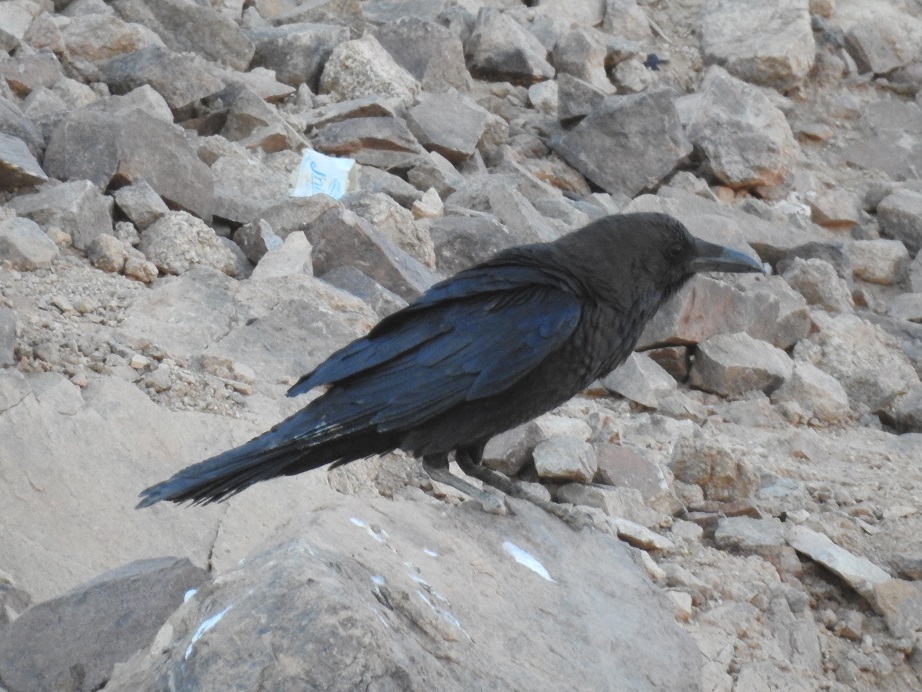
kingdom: Animalia
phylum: Chordata
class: Aves
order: Passeriformes
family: Corvidae
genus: Corvus
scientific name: Corvus ruficollis
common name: Brown-necked raven
